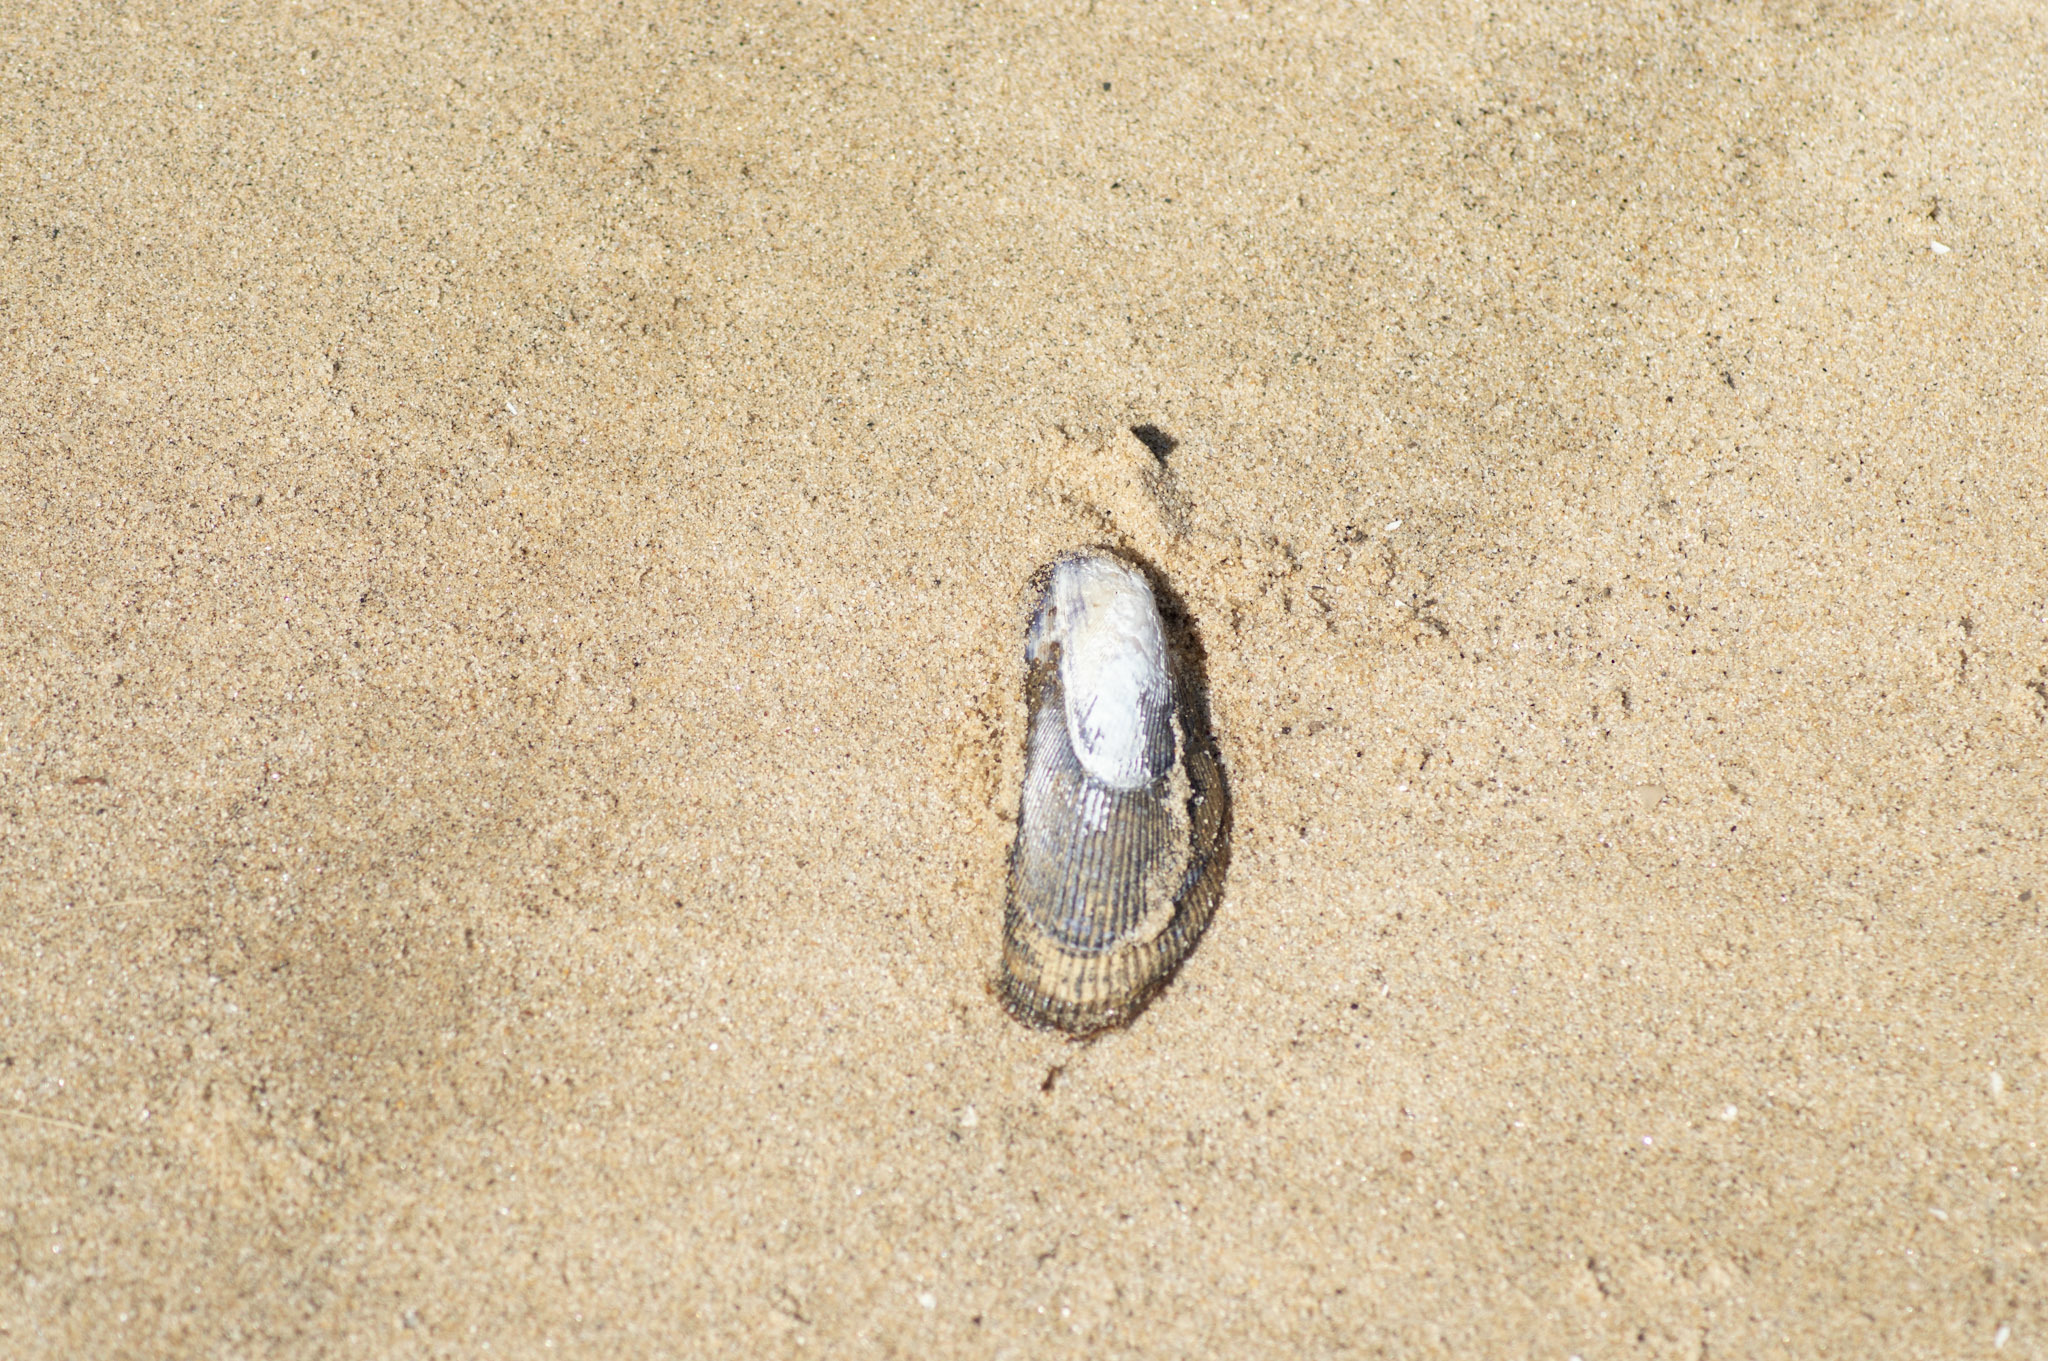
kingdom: Animalia
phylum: Mollusca
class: Bivalvia
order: Mytilida
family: Mytilidae
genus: Geukensia
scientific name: Geukensia demissa
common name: Ribbed mussel
